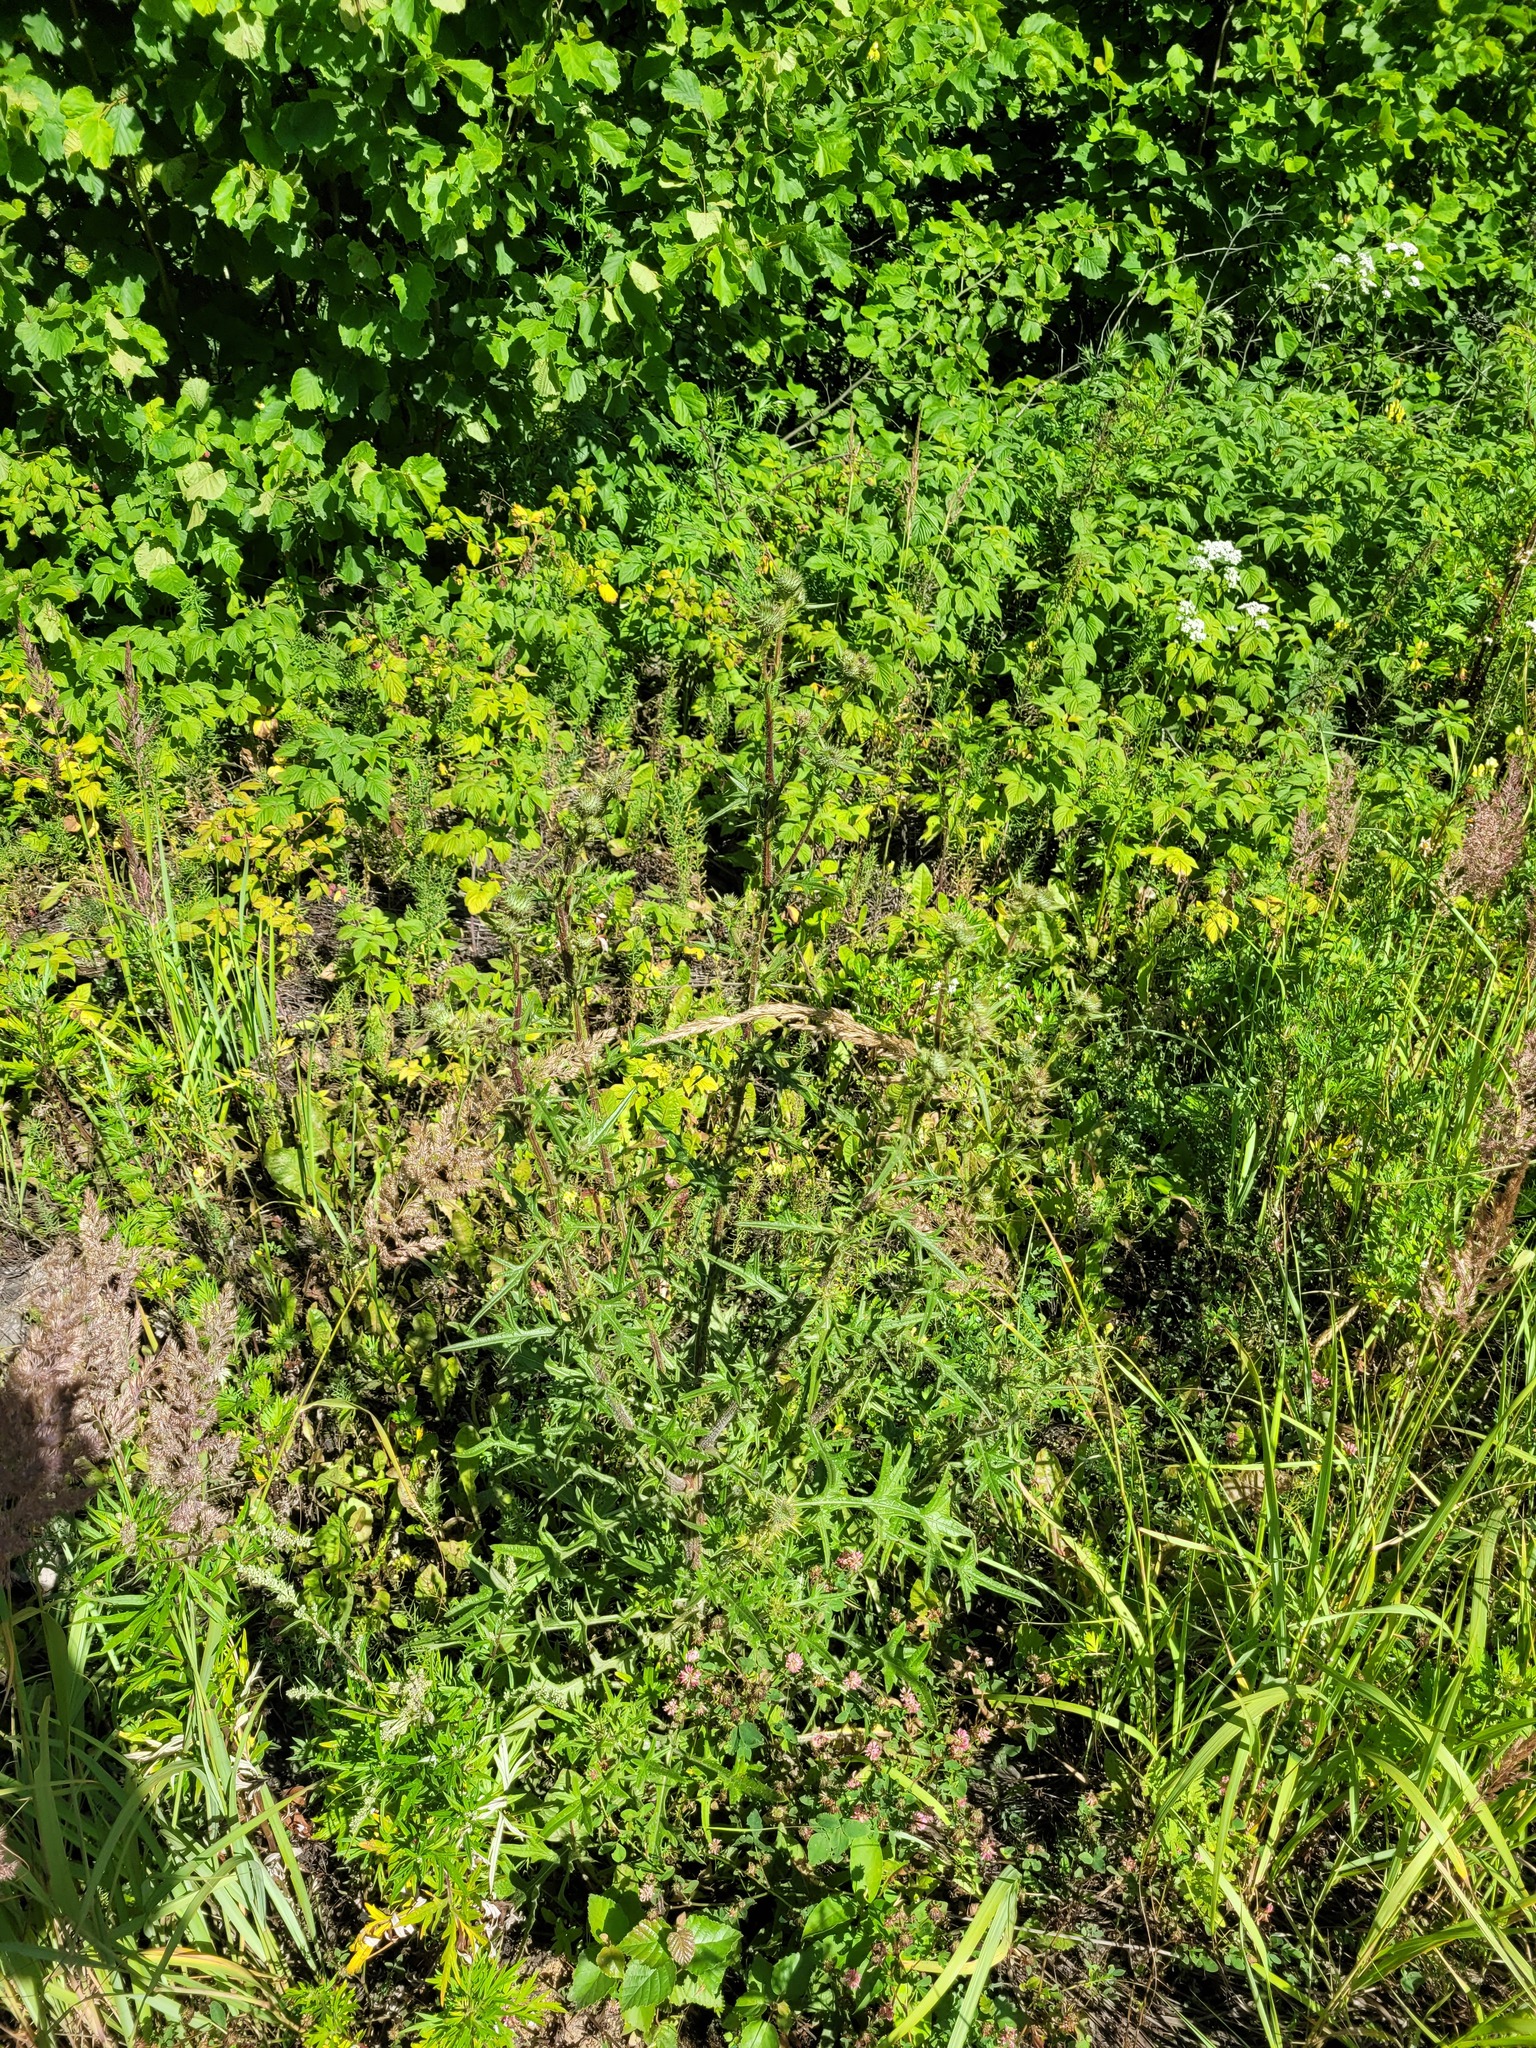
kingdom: Plantae
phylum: Tracheophyta
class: Magnoliopsida
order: Asterales
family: Asteraceae
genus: Cirsium
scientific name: Cirsium vulgare
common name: Bull thistle
